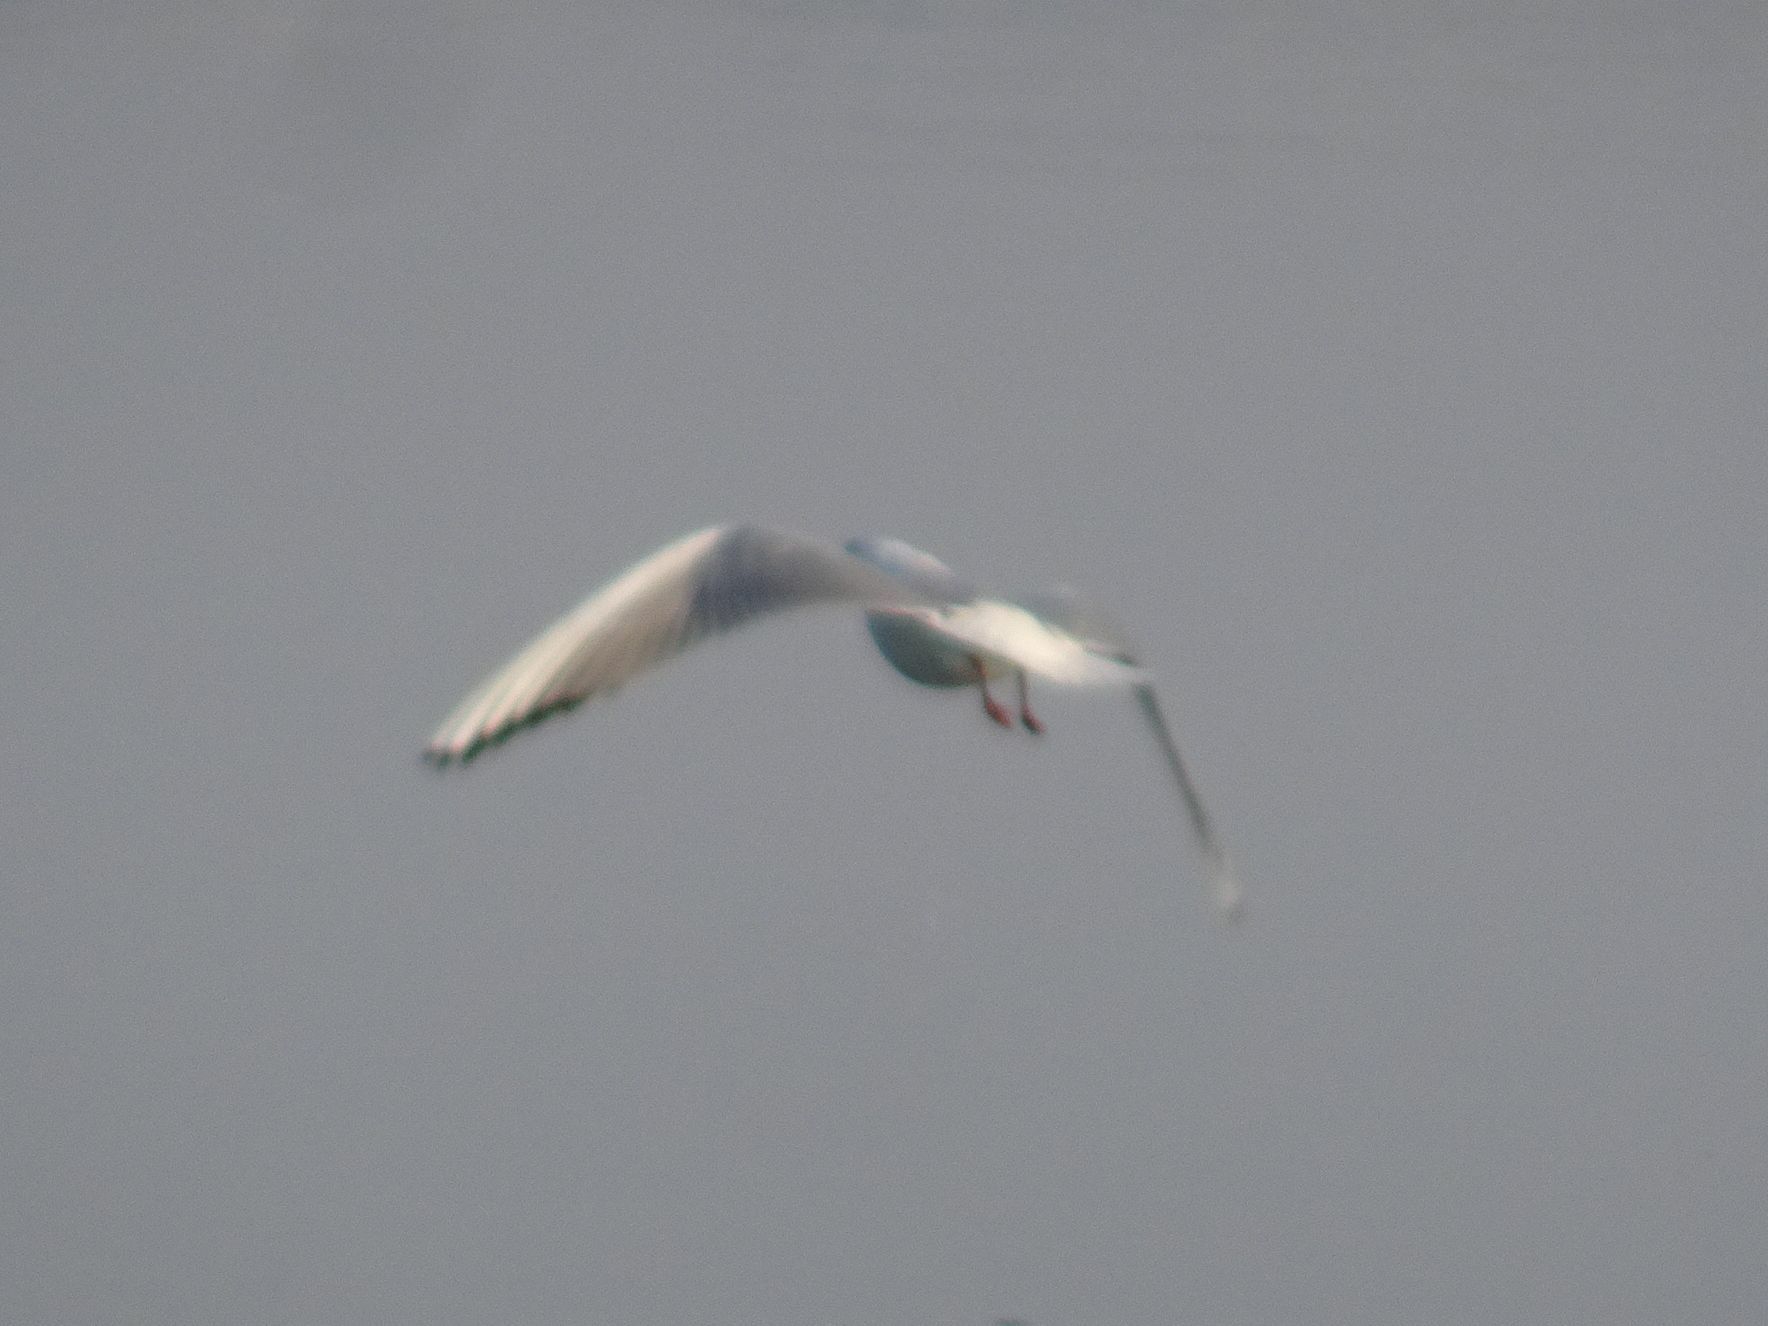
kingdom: Animalia
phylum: Chordata
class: Aves
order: Charadriiformes
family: Laridae
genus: Chroicocephalus
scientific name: Chroicocephalus ridibundus
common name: Black-headed gull
